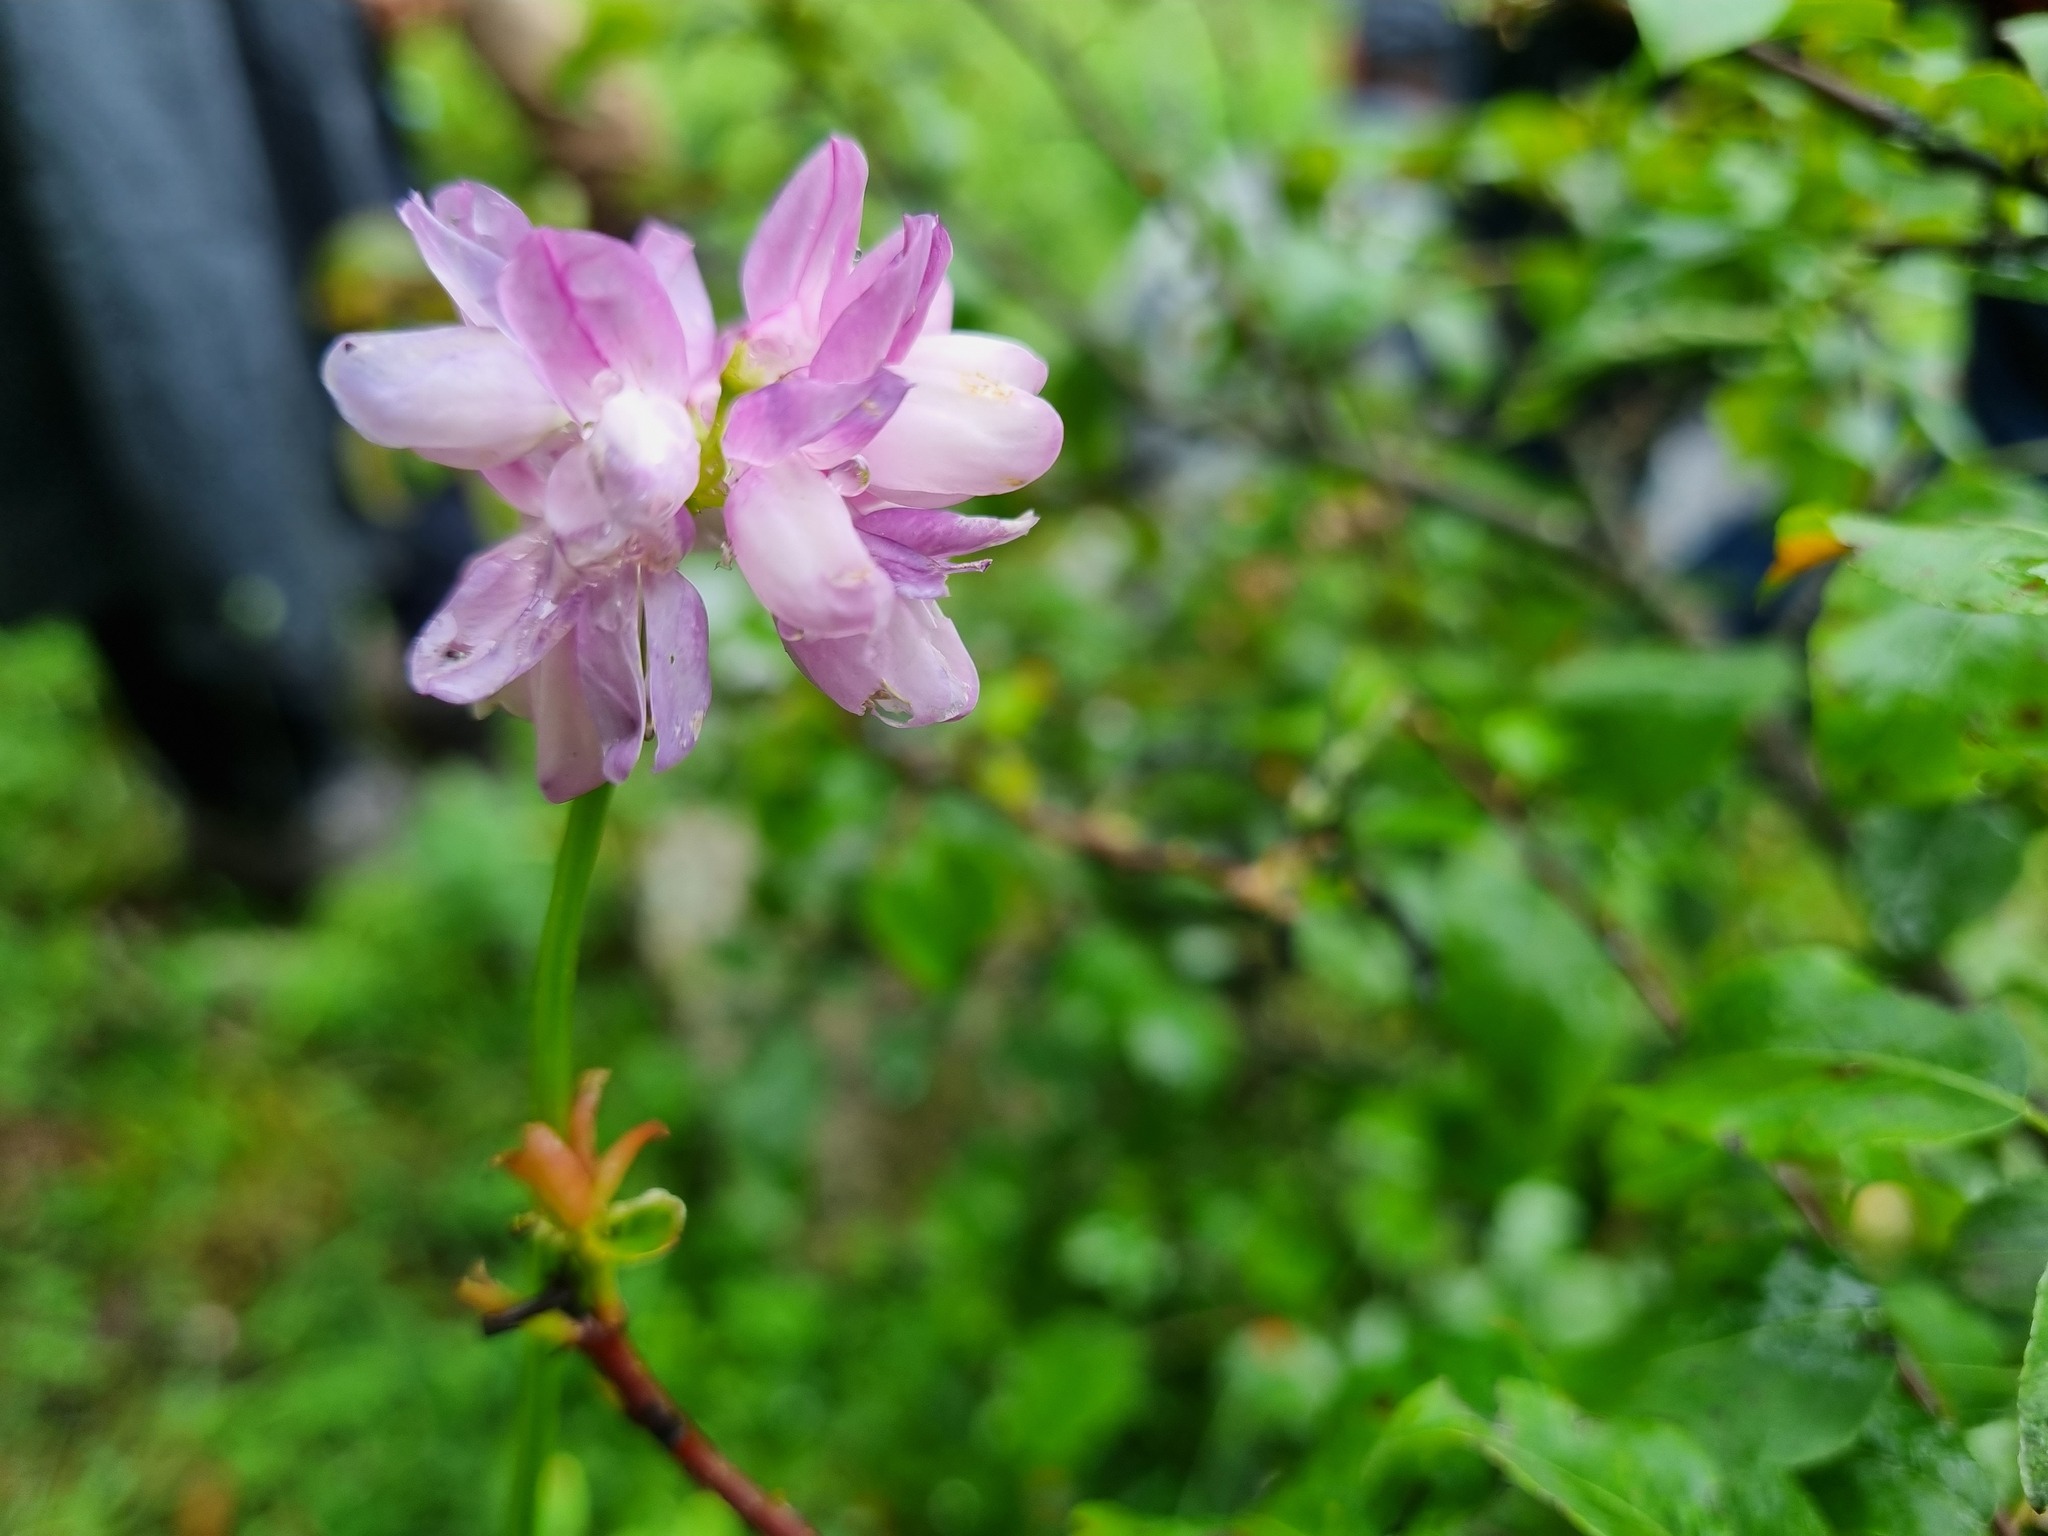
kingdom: Plantae
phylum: Tracheophyta
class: Magnoliopsida
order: Fabales
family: Fabaceae
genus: Coronilla
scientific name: Coronilla varia
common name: Crownvetch
